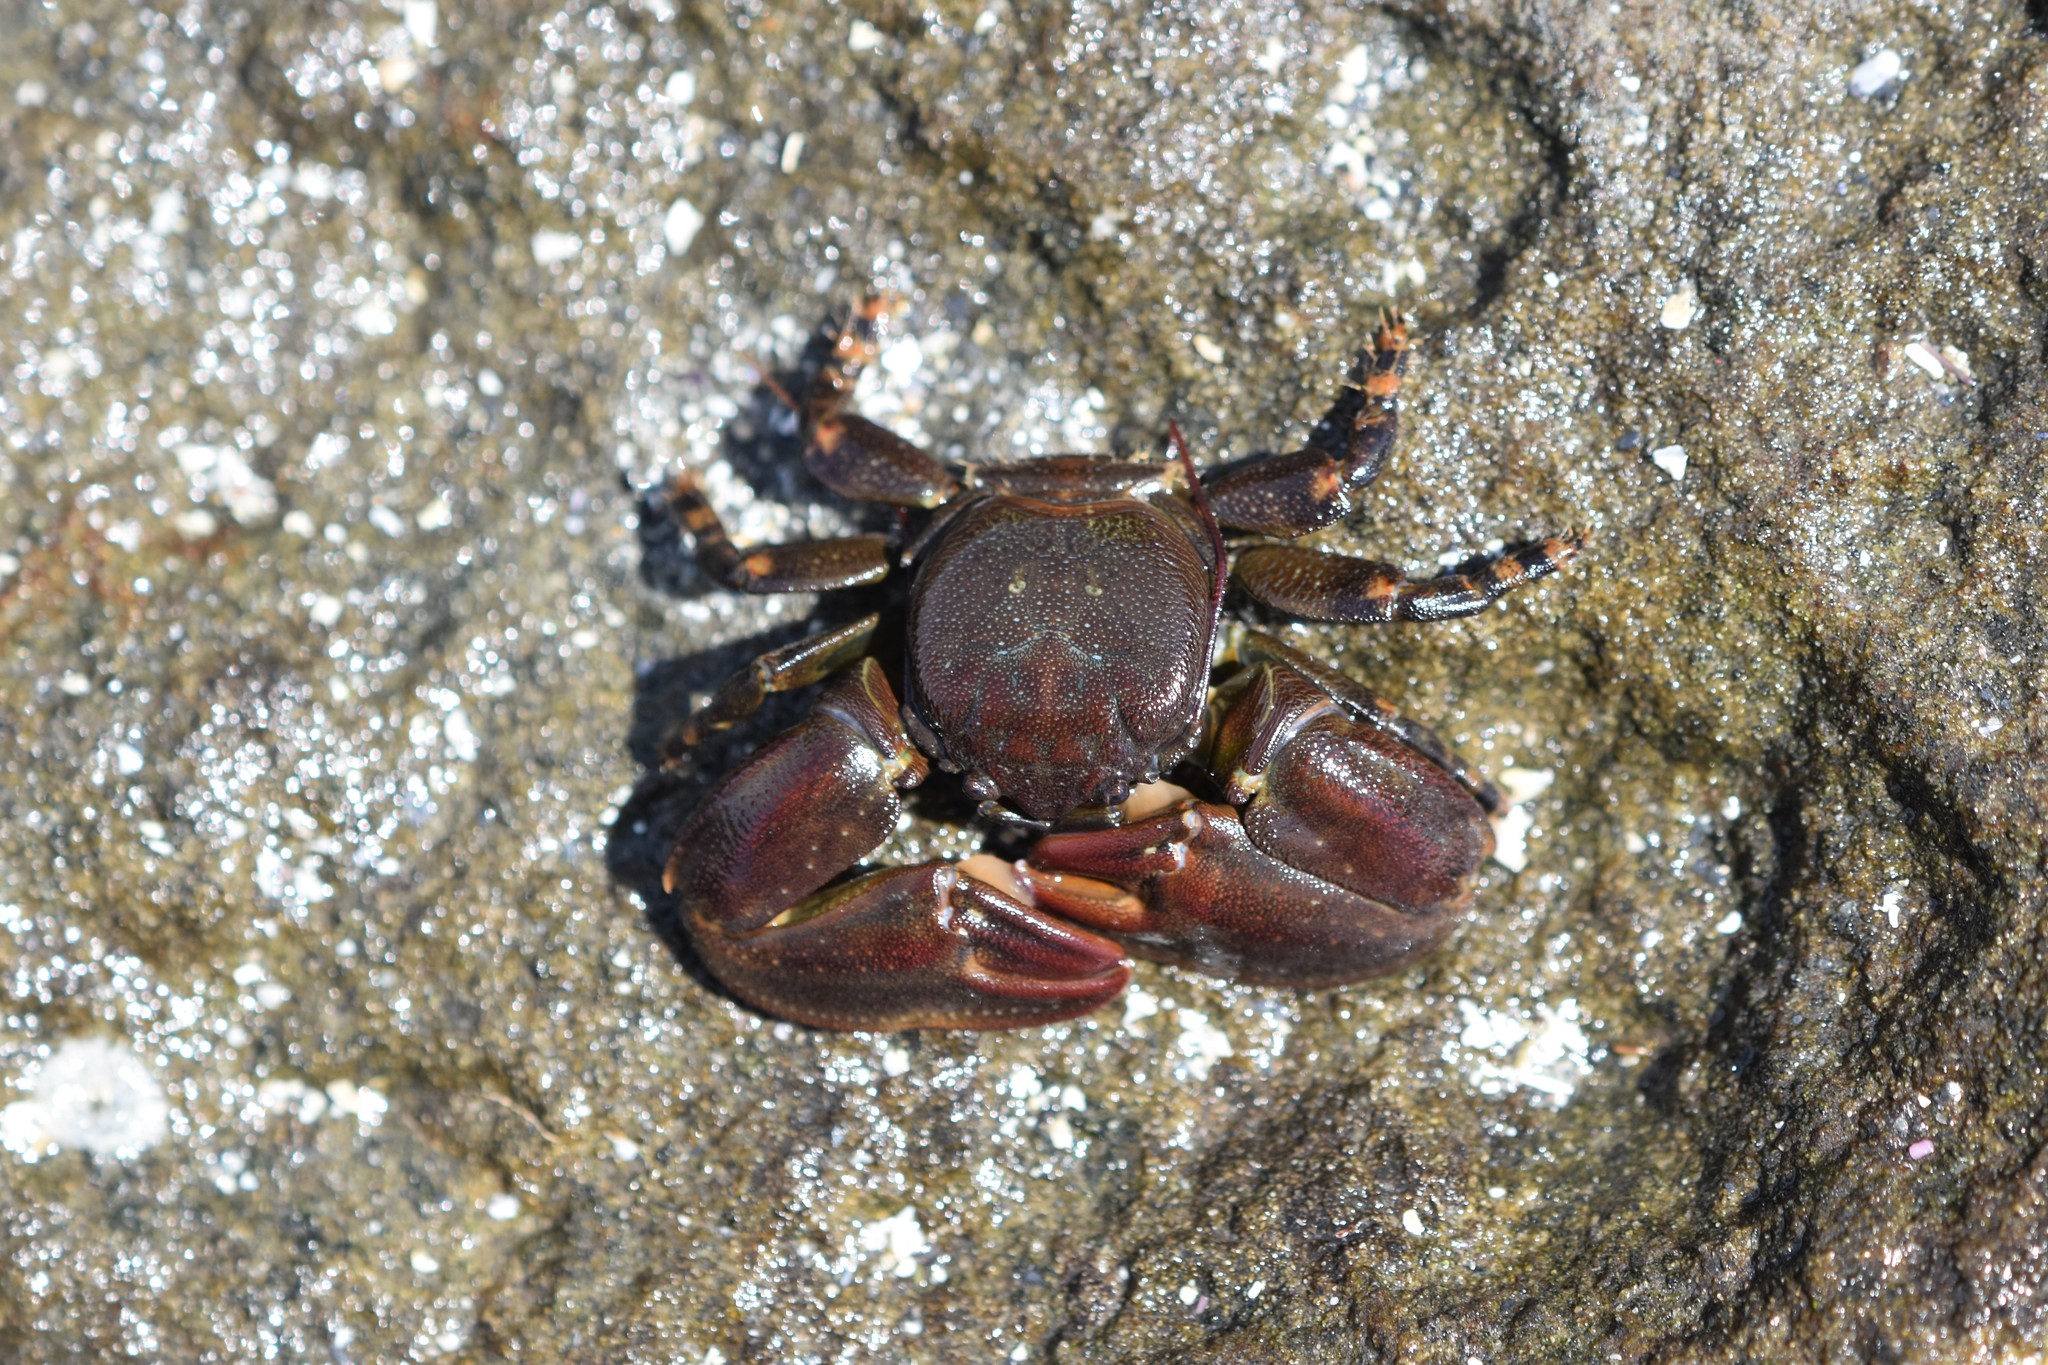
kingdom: Animalia
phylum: Arthropoda
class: Malacostraca
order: Decapoda
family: Porcellanidae
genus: Petrolisthes
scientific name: Petrolisthes cinctipes
